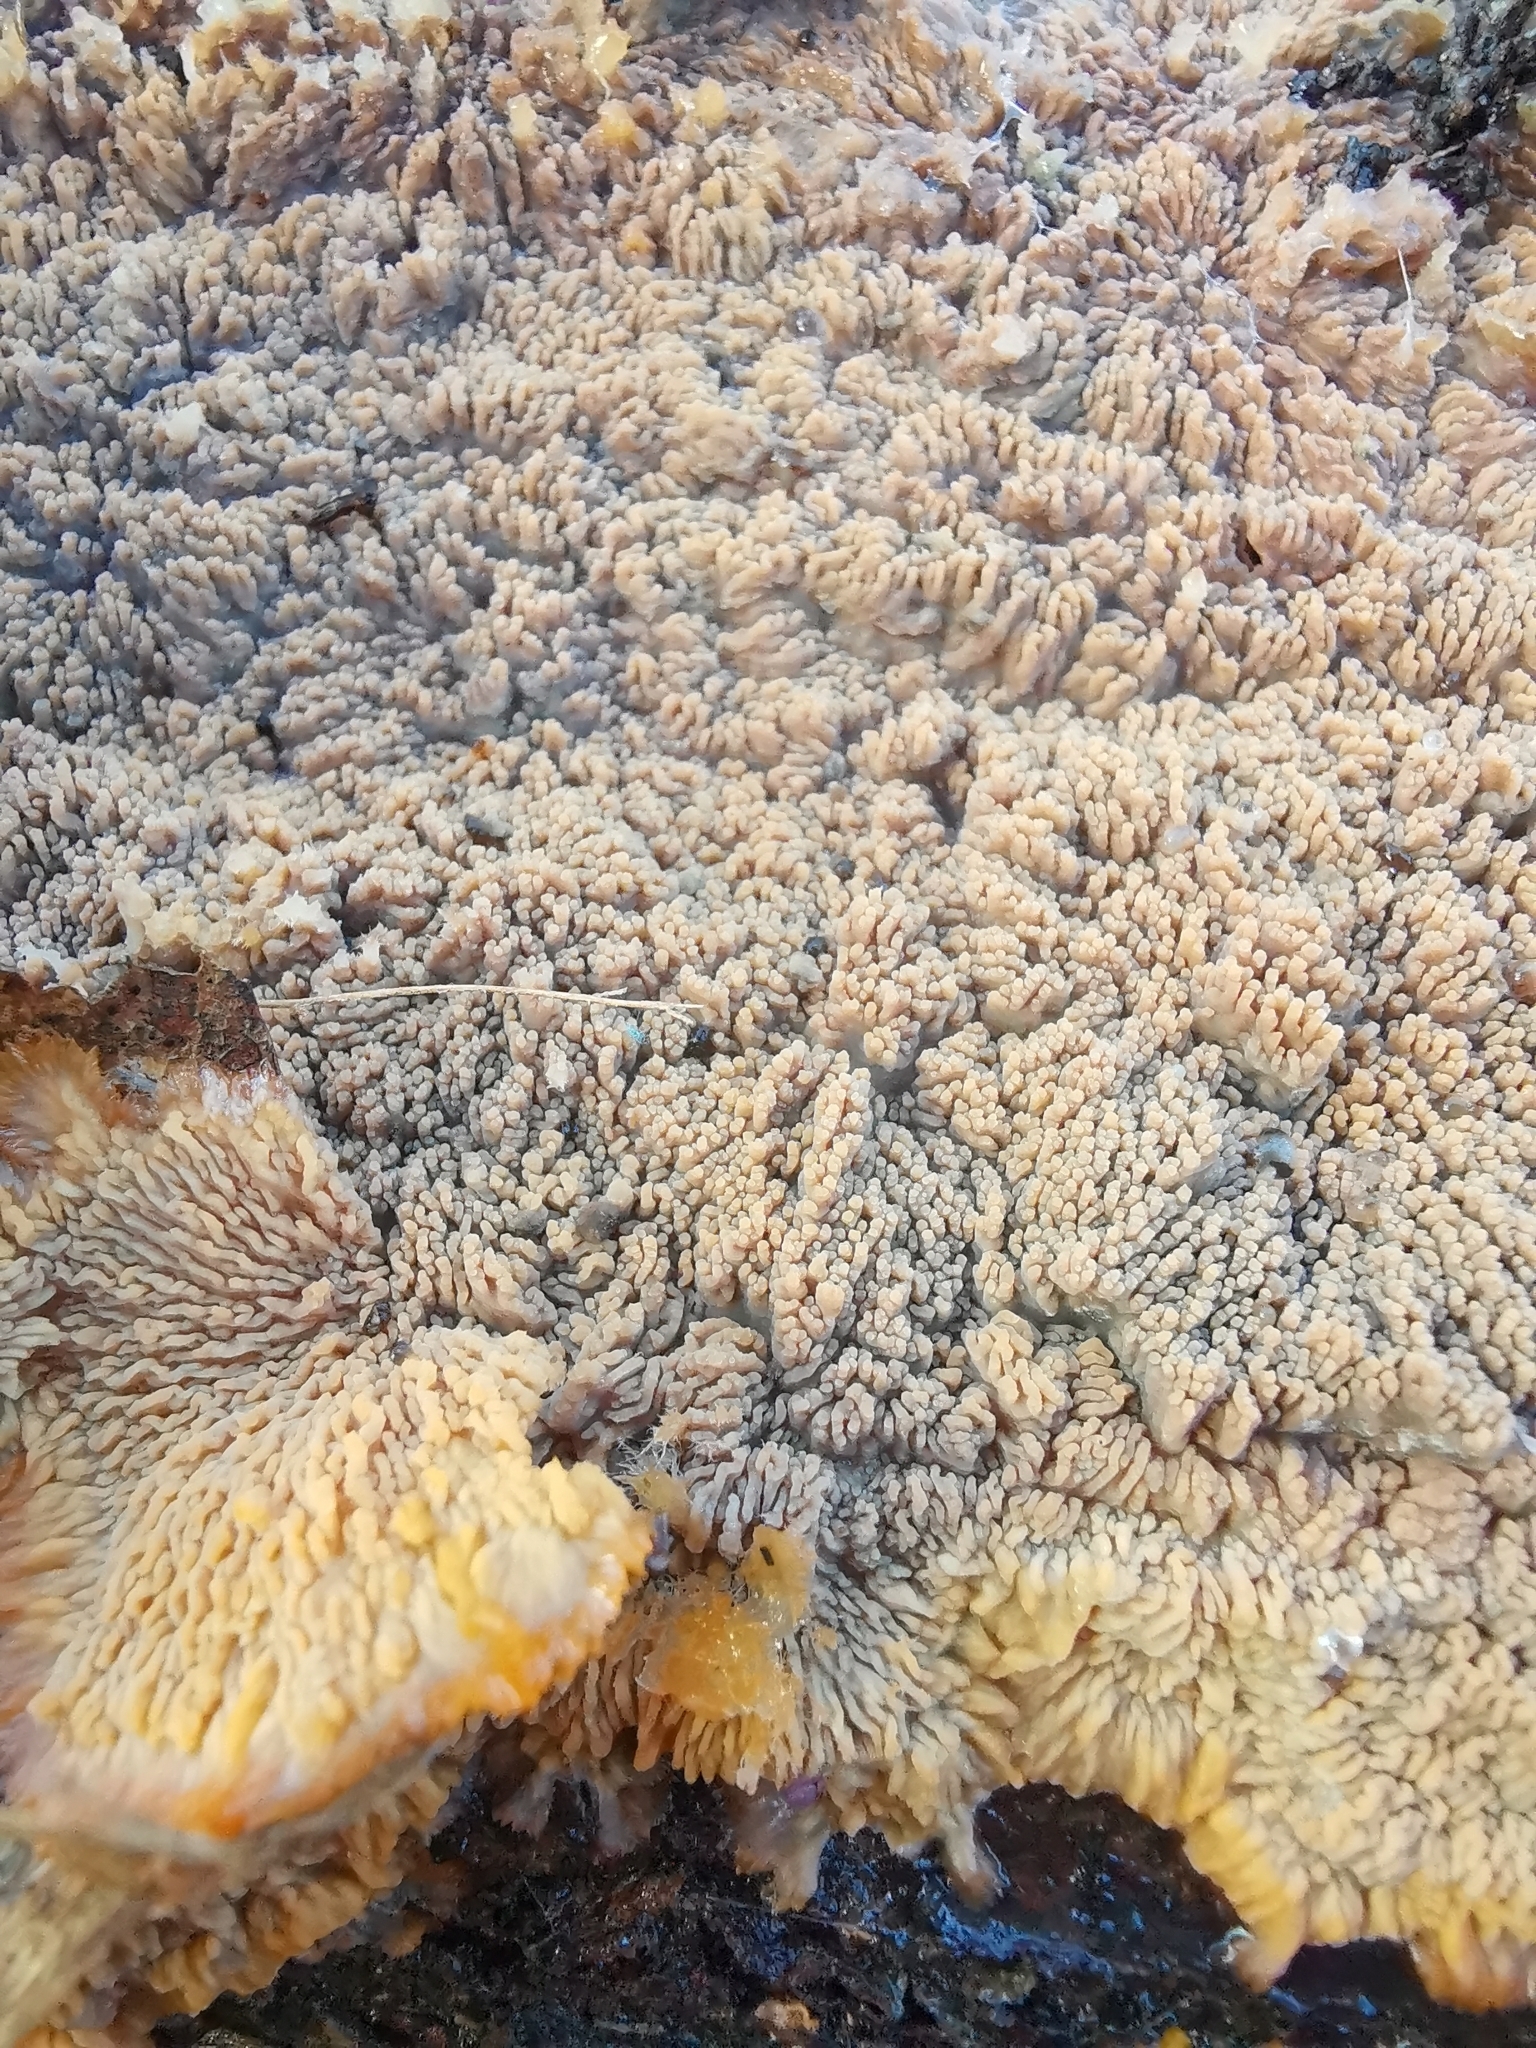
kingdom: Fungi
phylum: Basidiomycota
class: Agaricomycetes
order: Polyporales
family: Meruliaceae
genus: Phlebia
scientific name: Phlebia radiata
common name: Wrinkled crust
